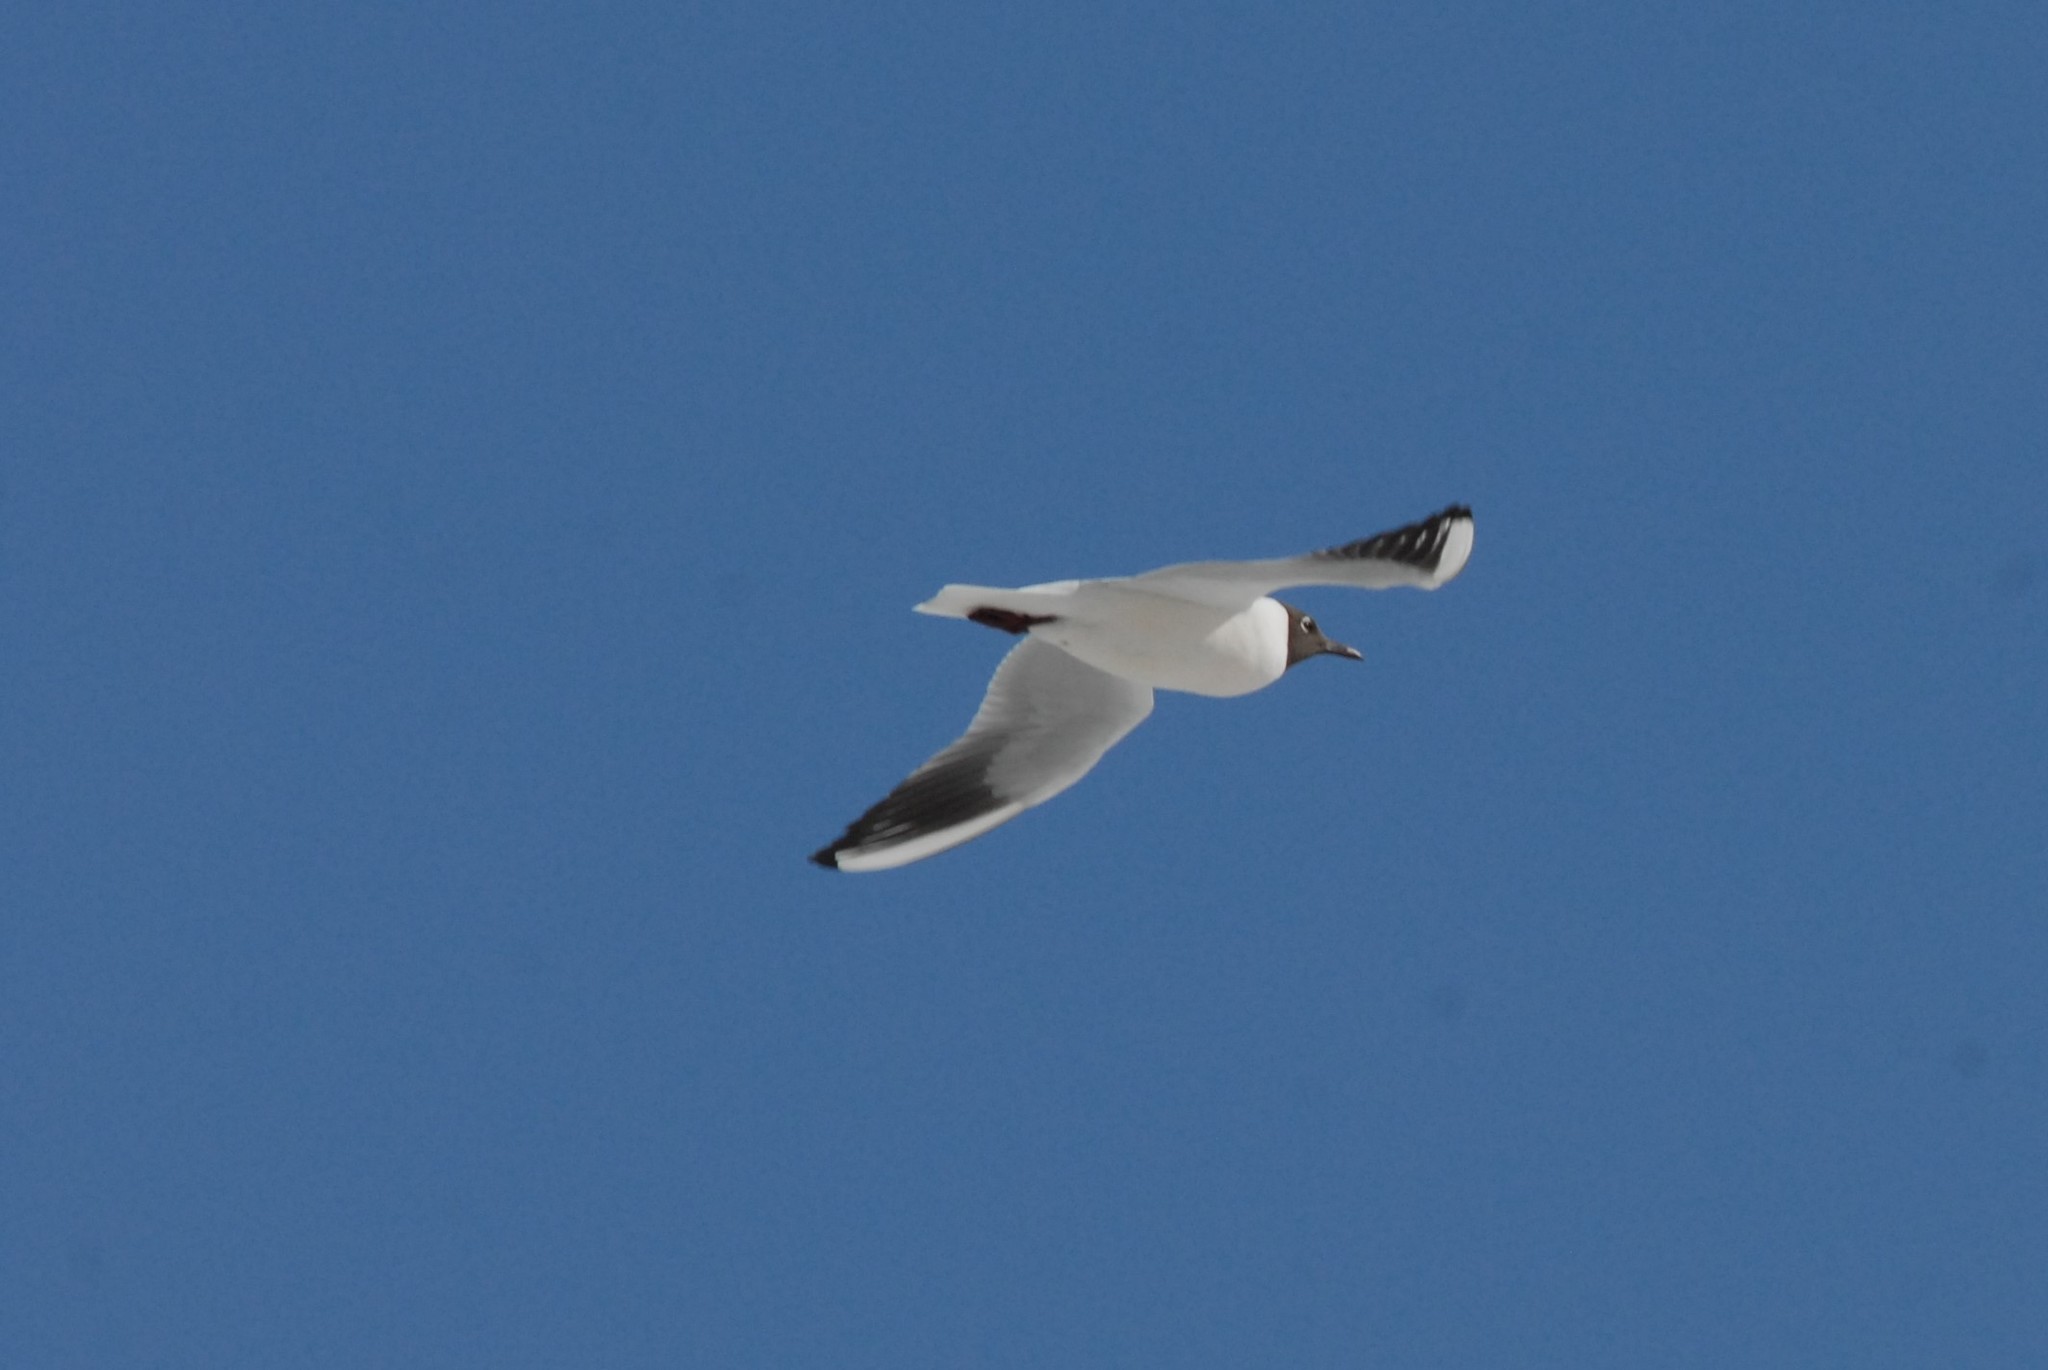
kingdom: Animalia
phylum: Chordata
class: Aves
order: Charadriiformes
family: Laridae
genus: Chroicocephalus
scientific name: Chroicocephalus ridibundus
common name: Black-headed gull
